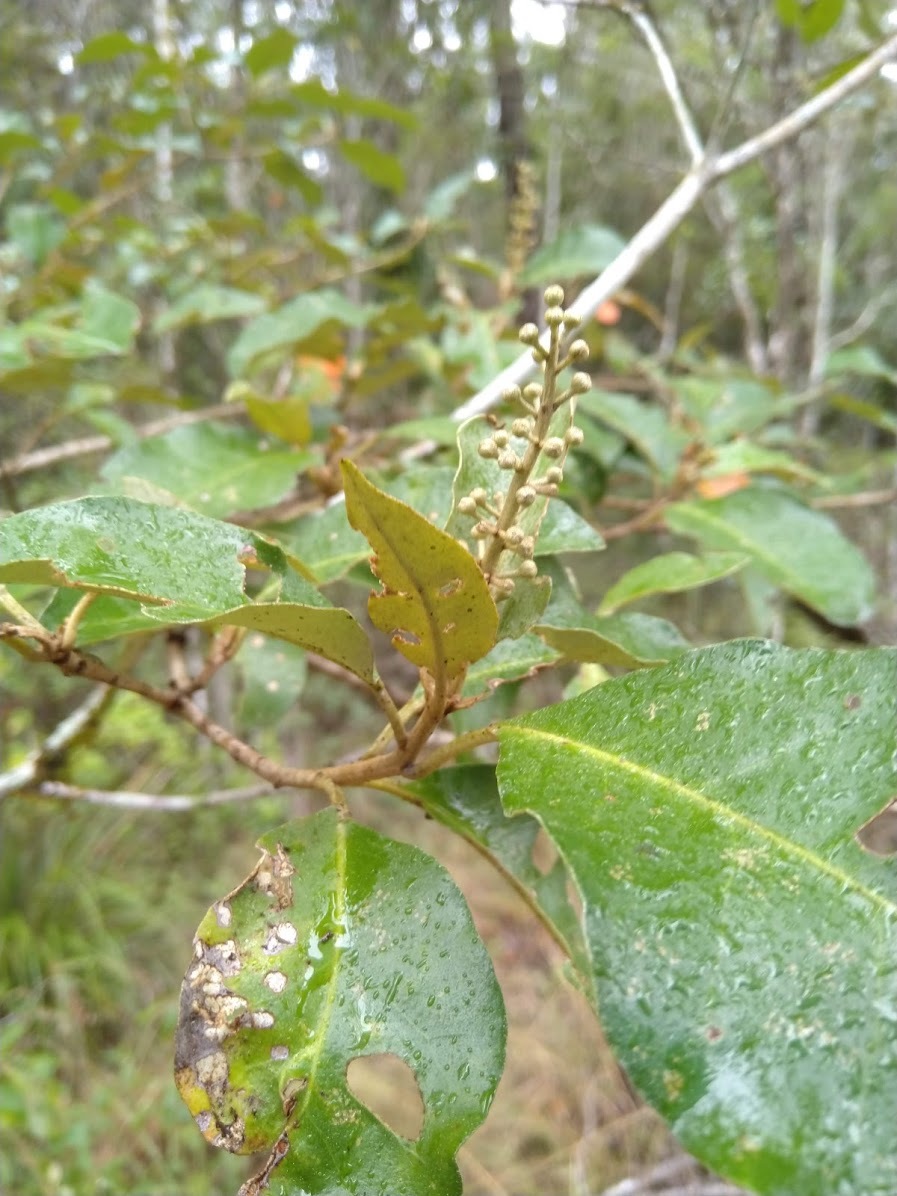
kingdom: Plantae
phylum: Tracheophyta
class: Magnoliopsida
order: Malpighiales
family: Euphorbiaceae
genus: Croton
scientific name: Croton insularis
